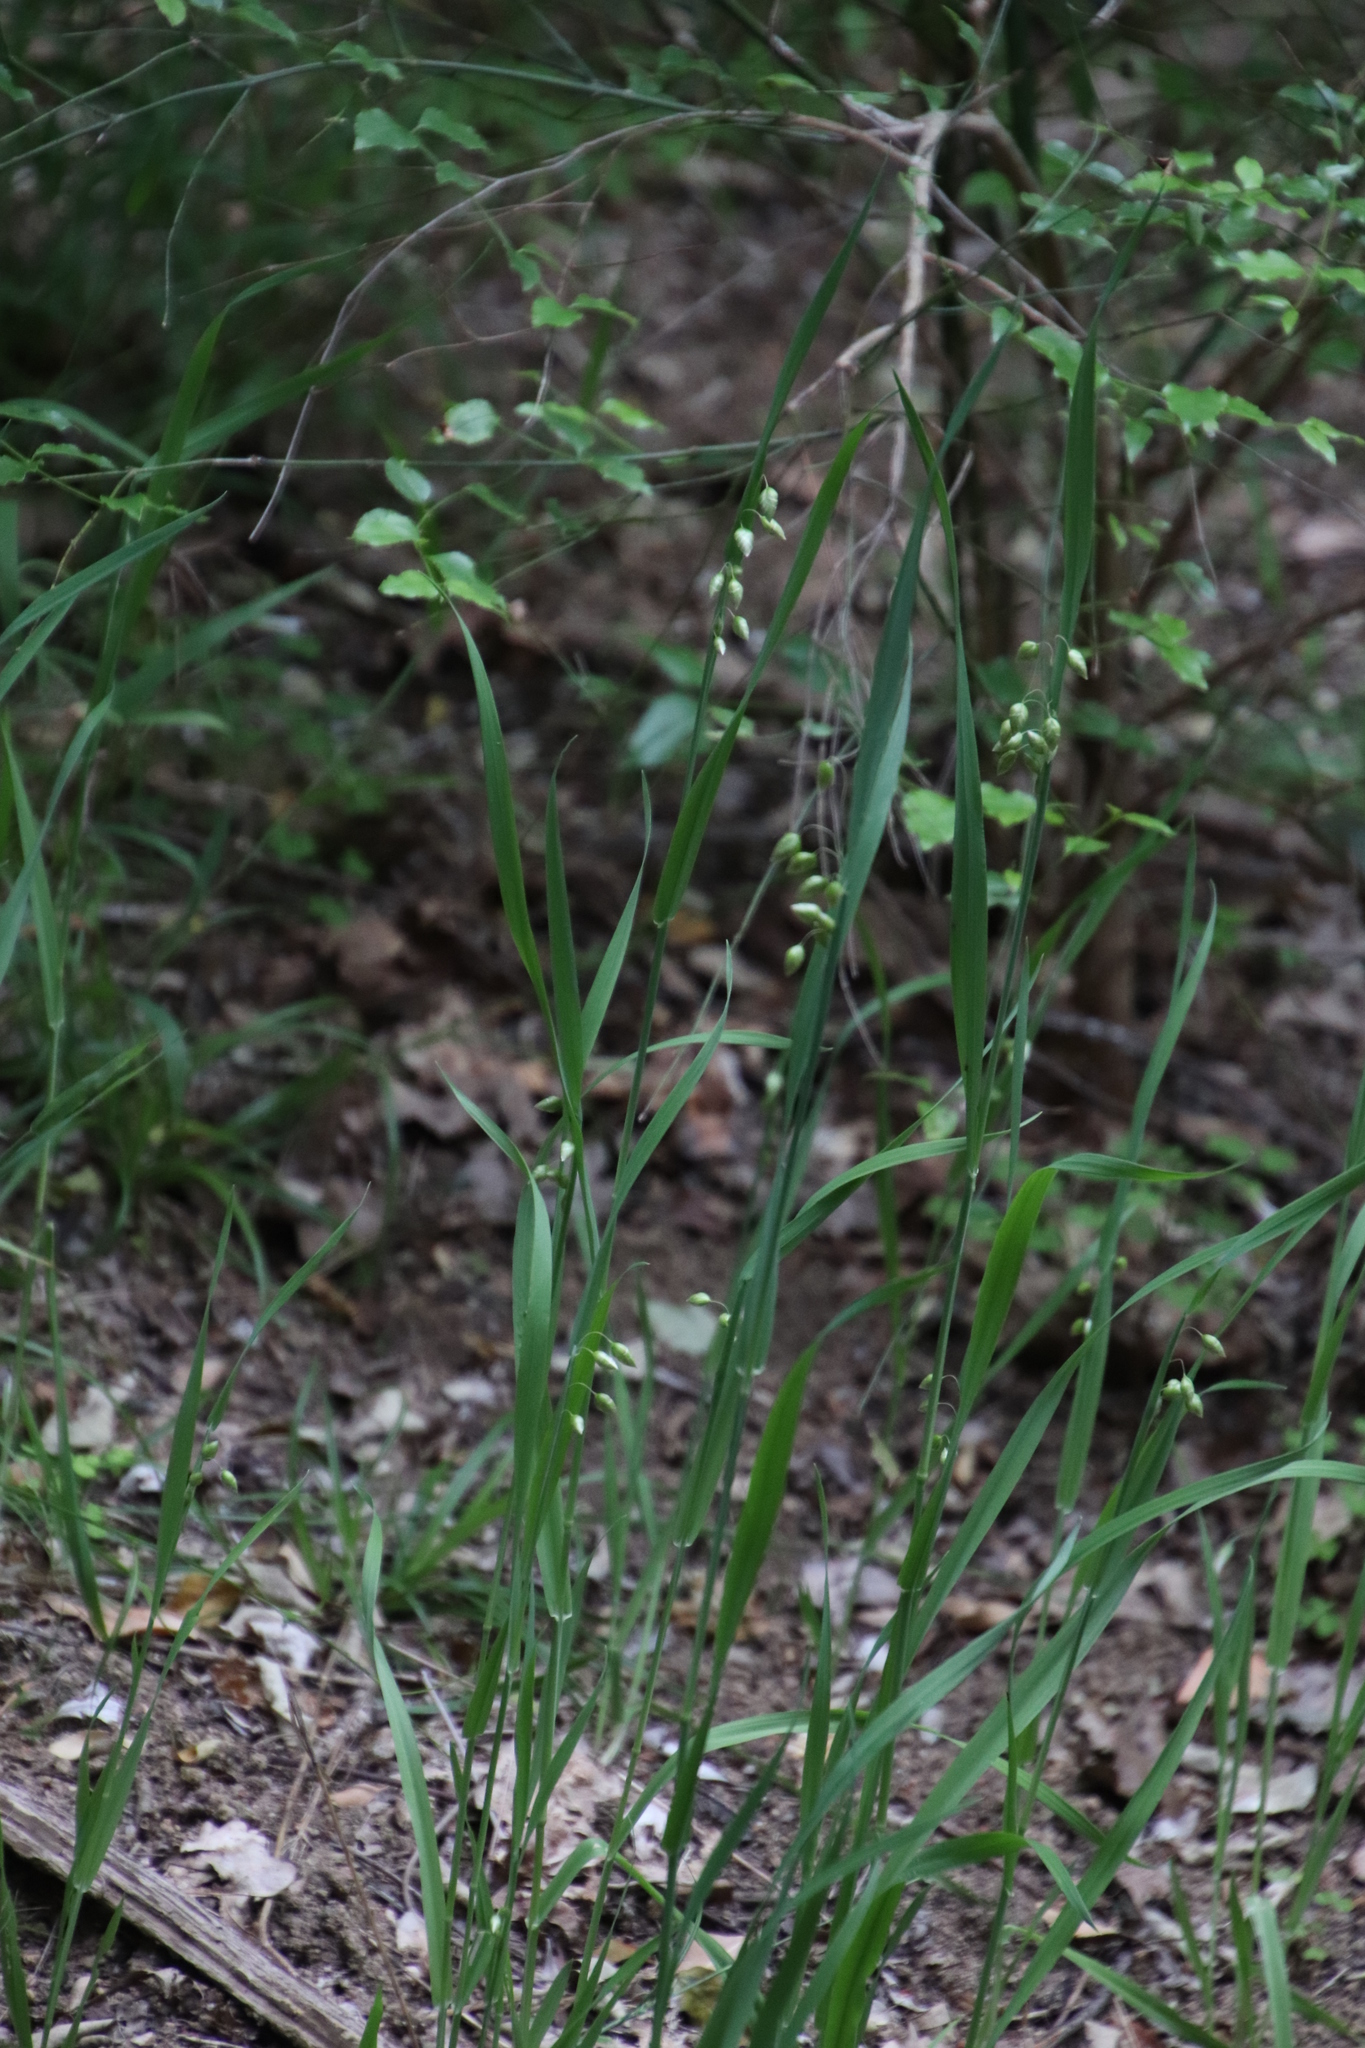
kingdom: Plantae
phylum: Tracheophyta
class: Liliopsida
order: Poales
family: Poaceae
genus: Briza
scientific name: Briza maxima
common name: Big quakinggrass
